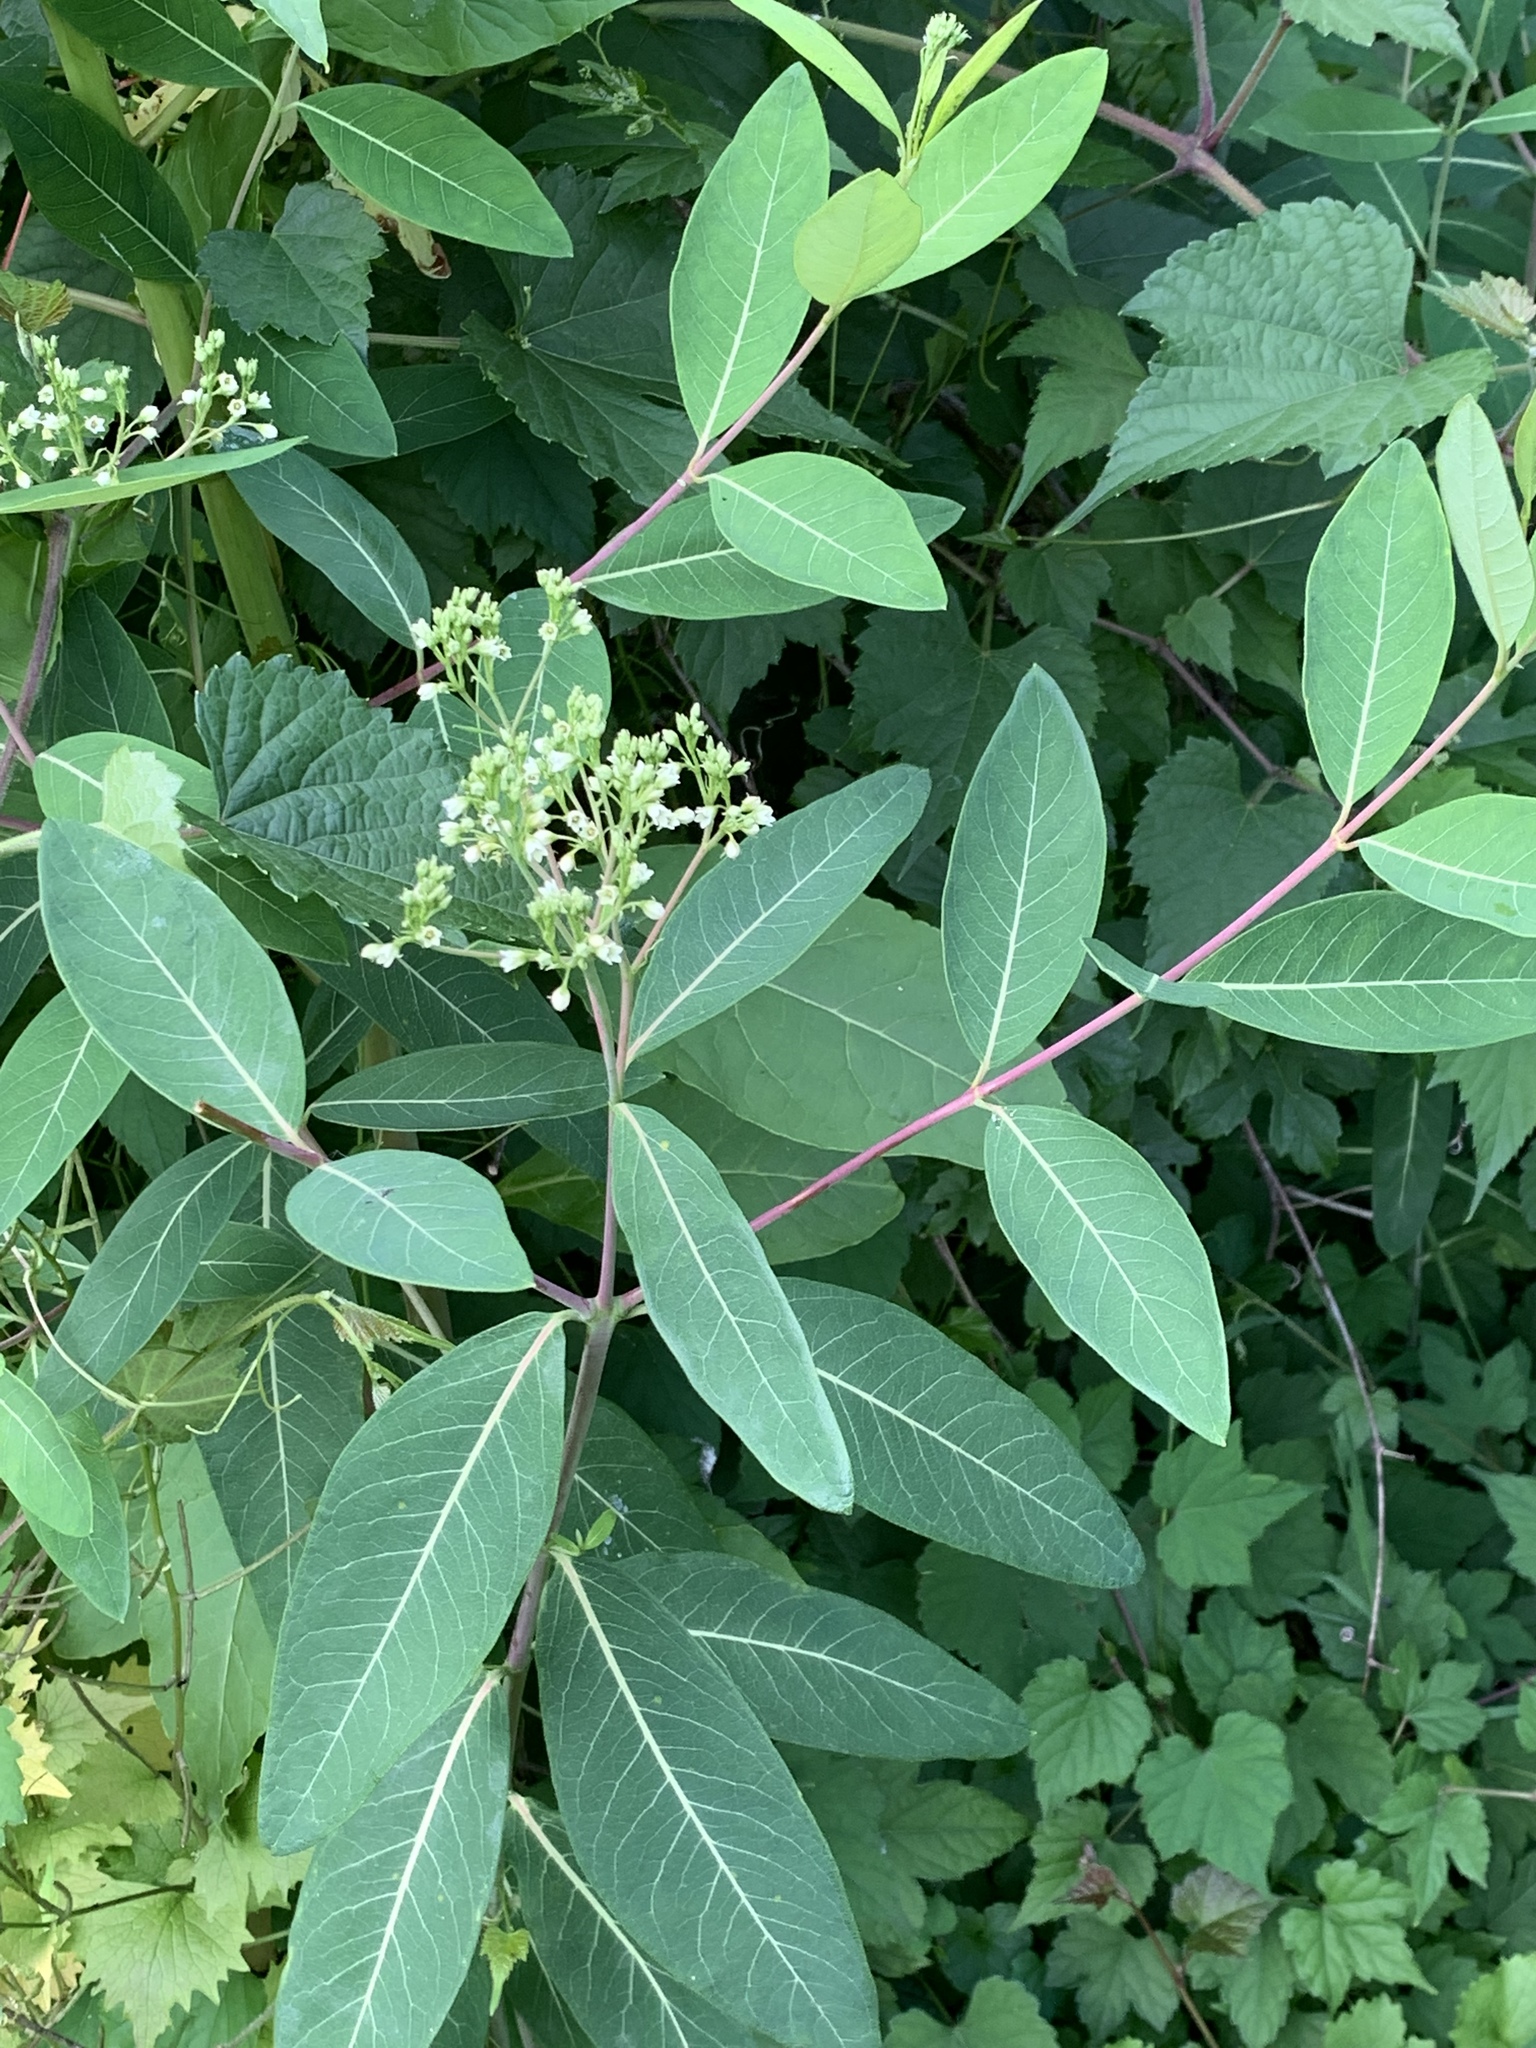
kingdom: Plantae
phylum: Tracheophyta
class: Magnoliopsida
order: Gentianales
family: Apocynaceae
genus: Apocynum
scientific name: Apocynum cannabinum
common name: Hemp dogbane
